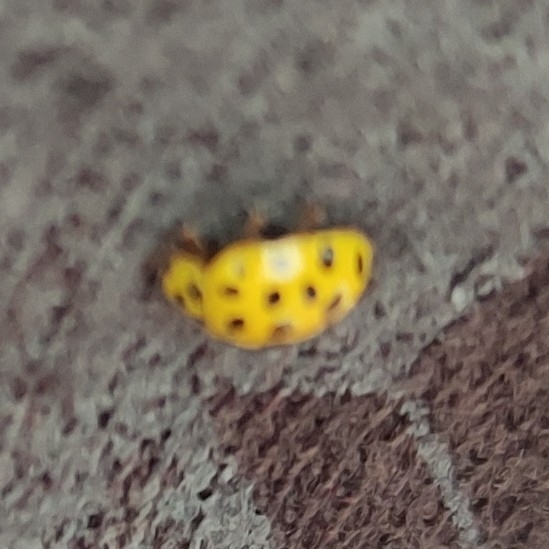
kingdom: Animalia
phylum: Arthropoda
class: Insecta
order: Coleoptera
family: Coccinellidae
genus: Psyllobora
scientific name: Psyllobora vigintiduopunctata
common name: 22-spot ladybird
